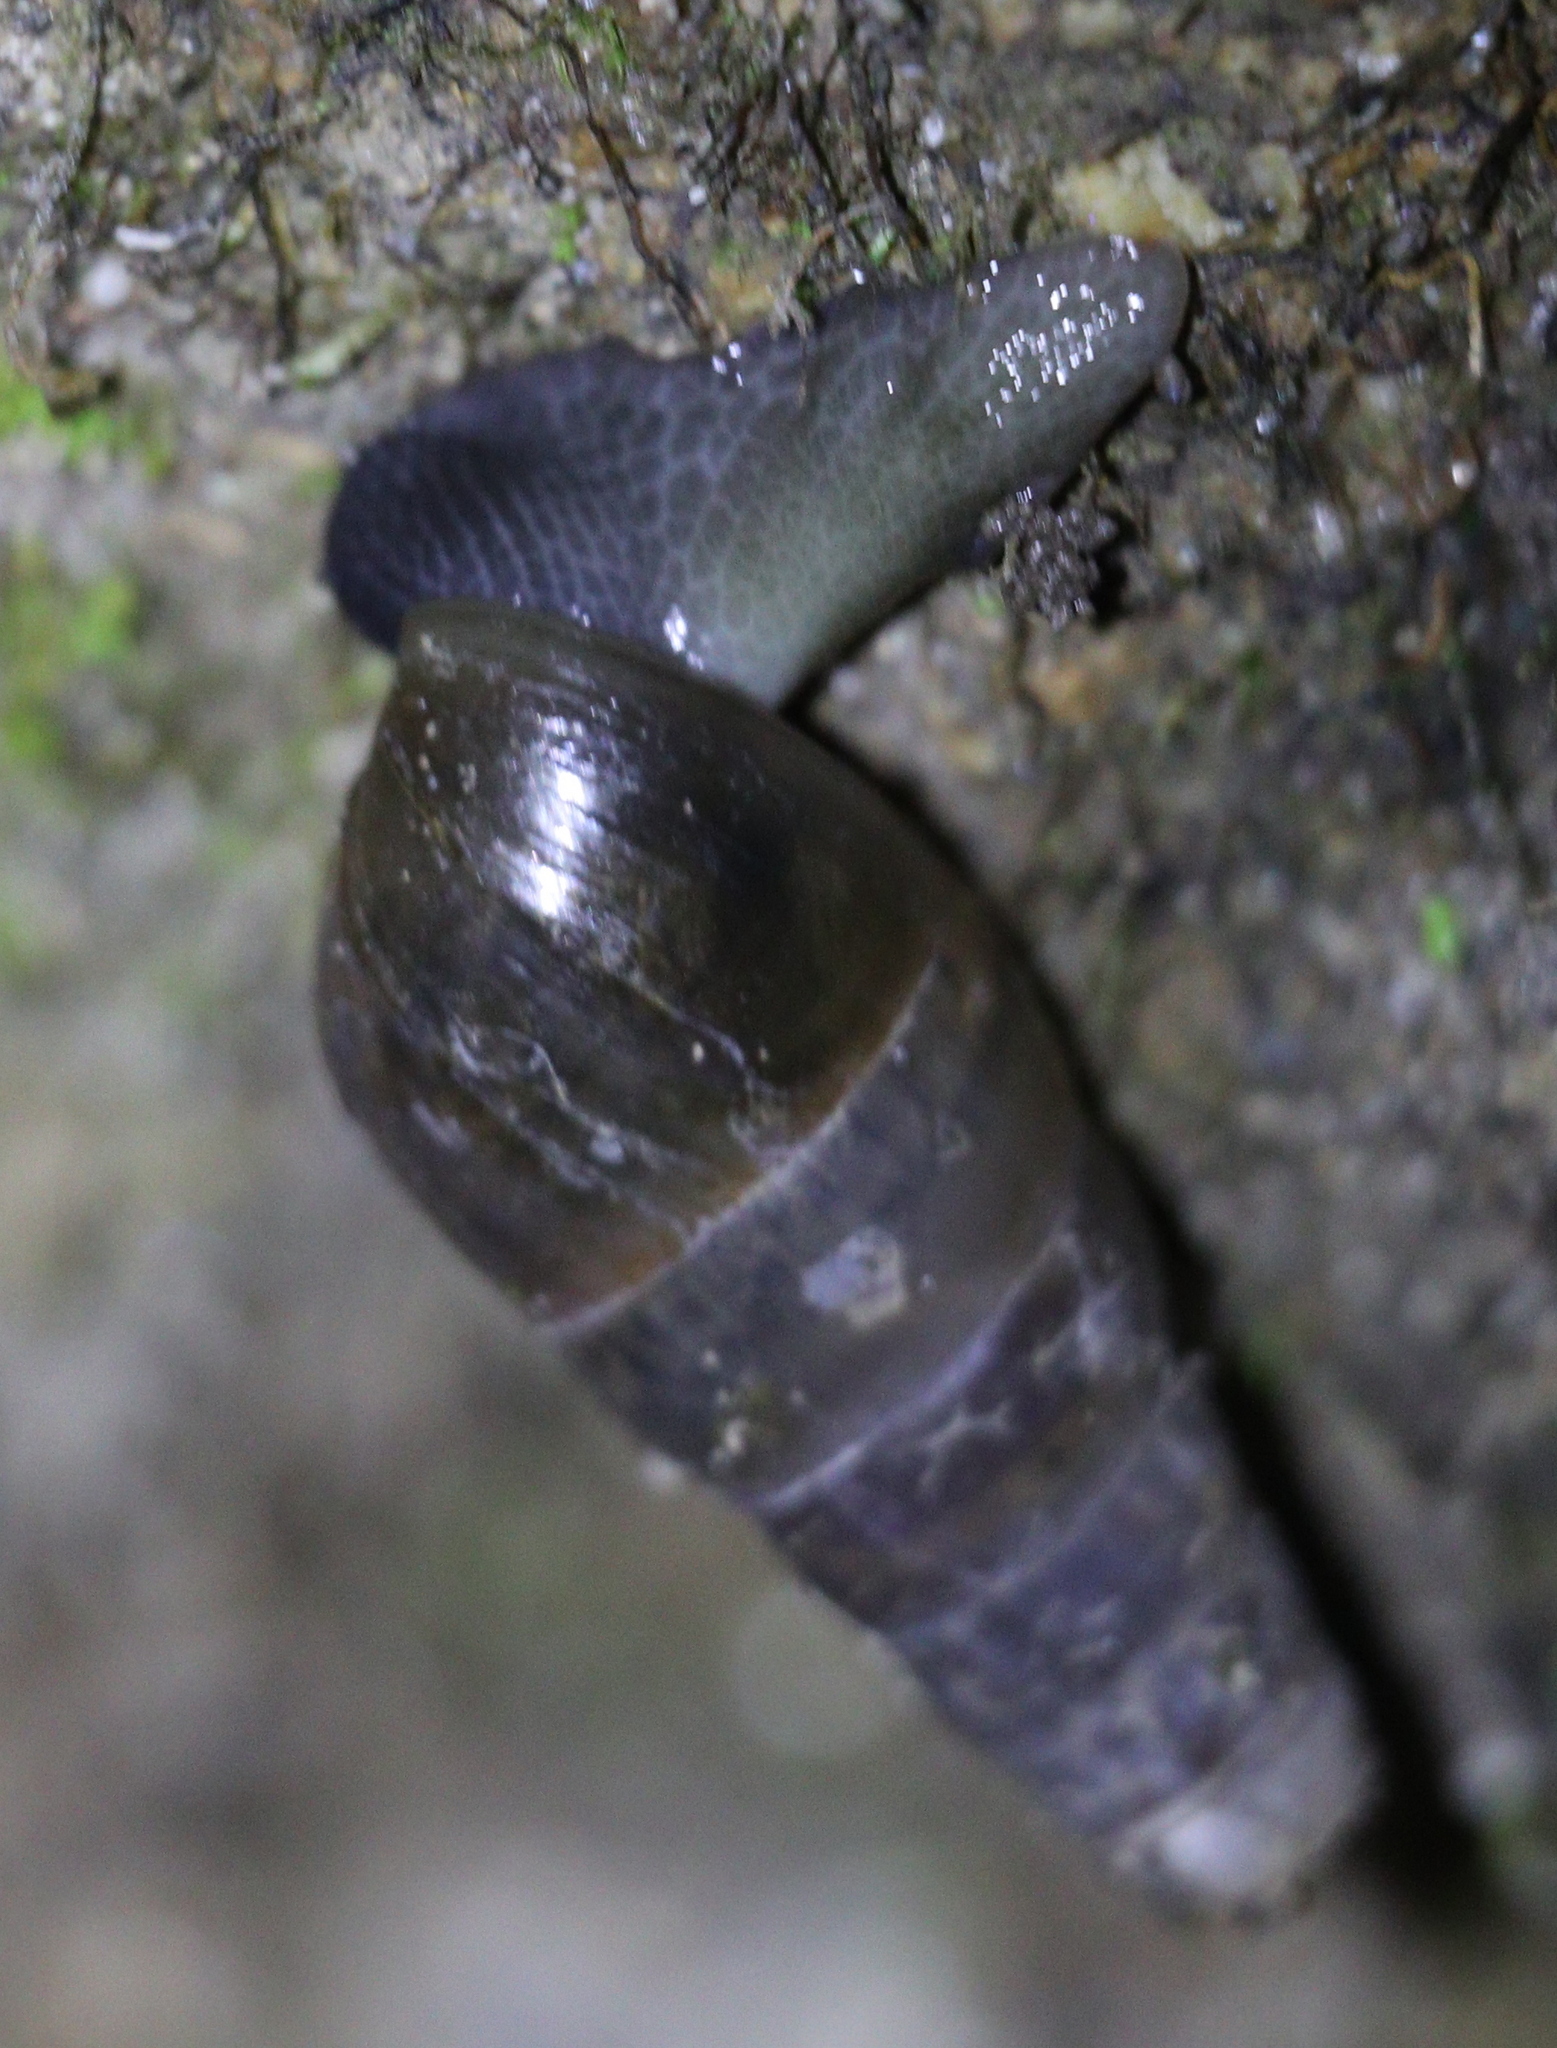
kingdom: Animalia
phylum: Mollusca
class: Gastropoda
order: Stylommatophora
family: Achatinidae
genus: Rumina
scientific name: Rumina decollata
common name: Decollate snail
